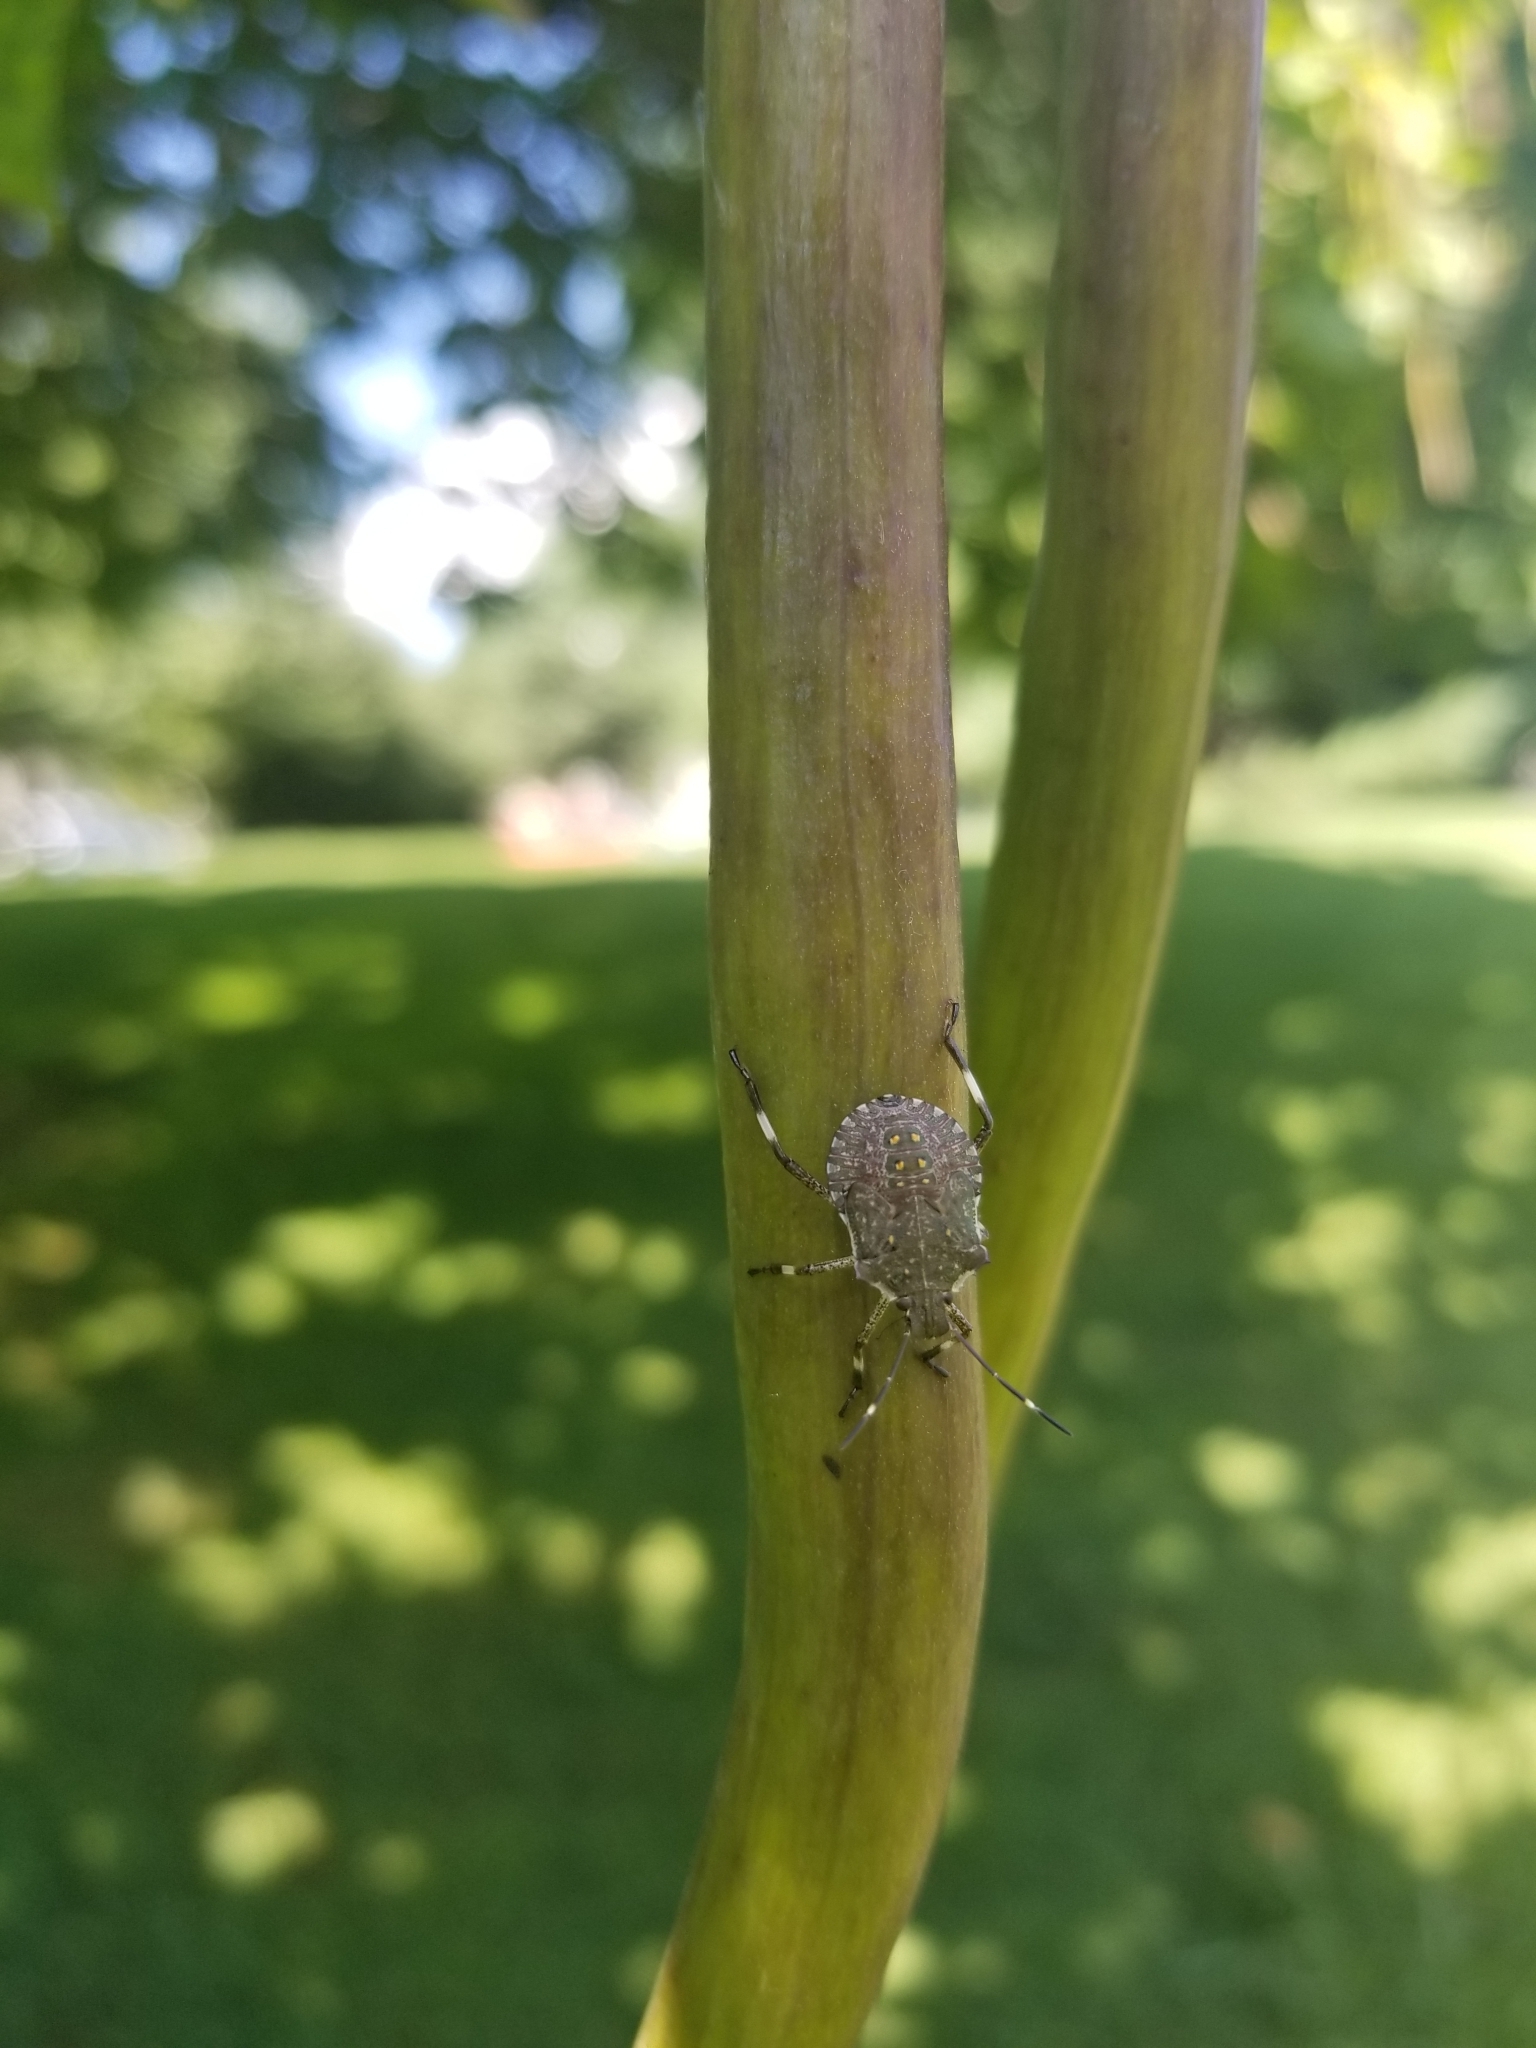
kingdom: Animalia
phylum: Arthropoda
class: Insecta
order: Hemiptera
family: Pentatomidae
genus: Halyomorpha
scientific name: Halyomorpha halys
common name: Brown marmorated stink bug
